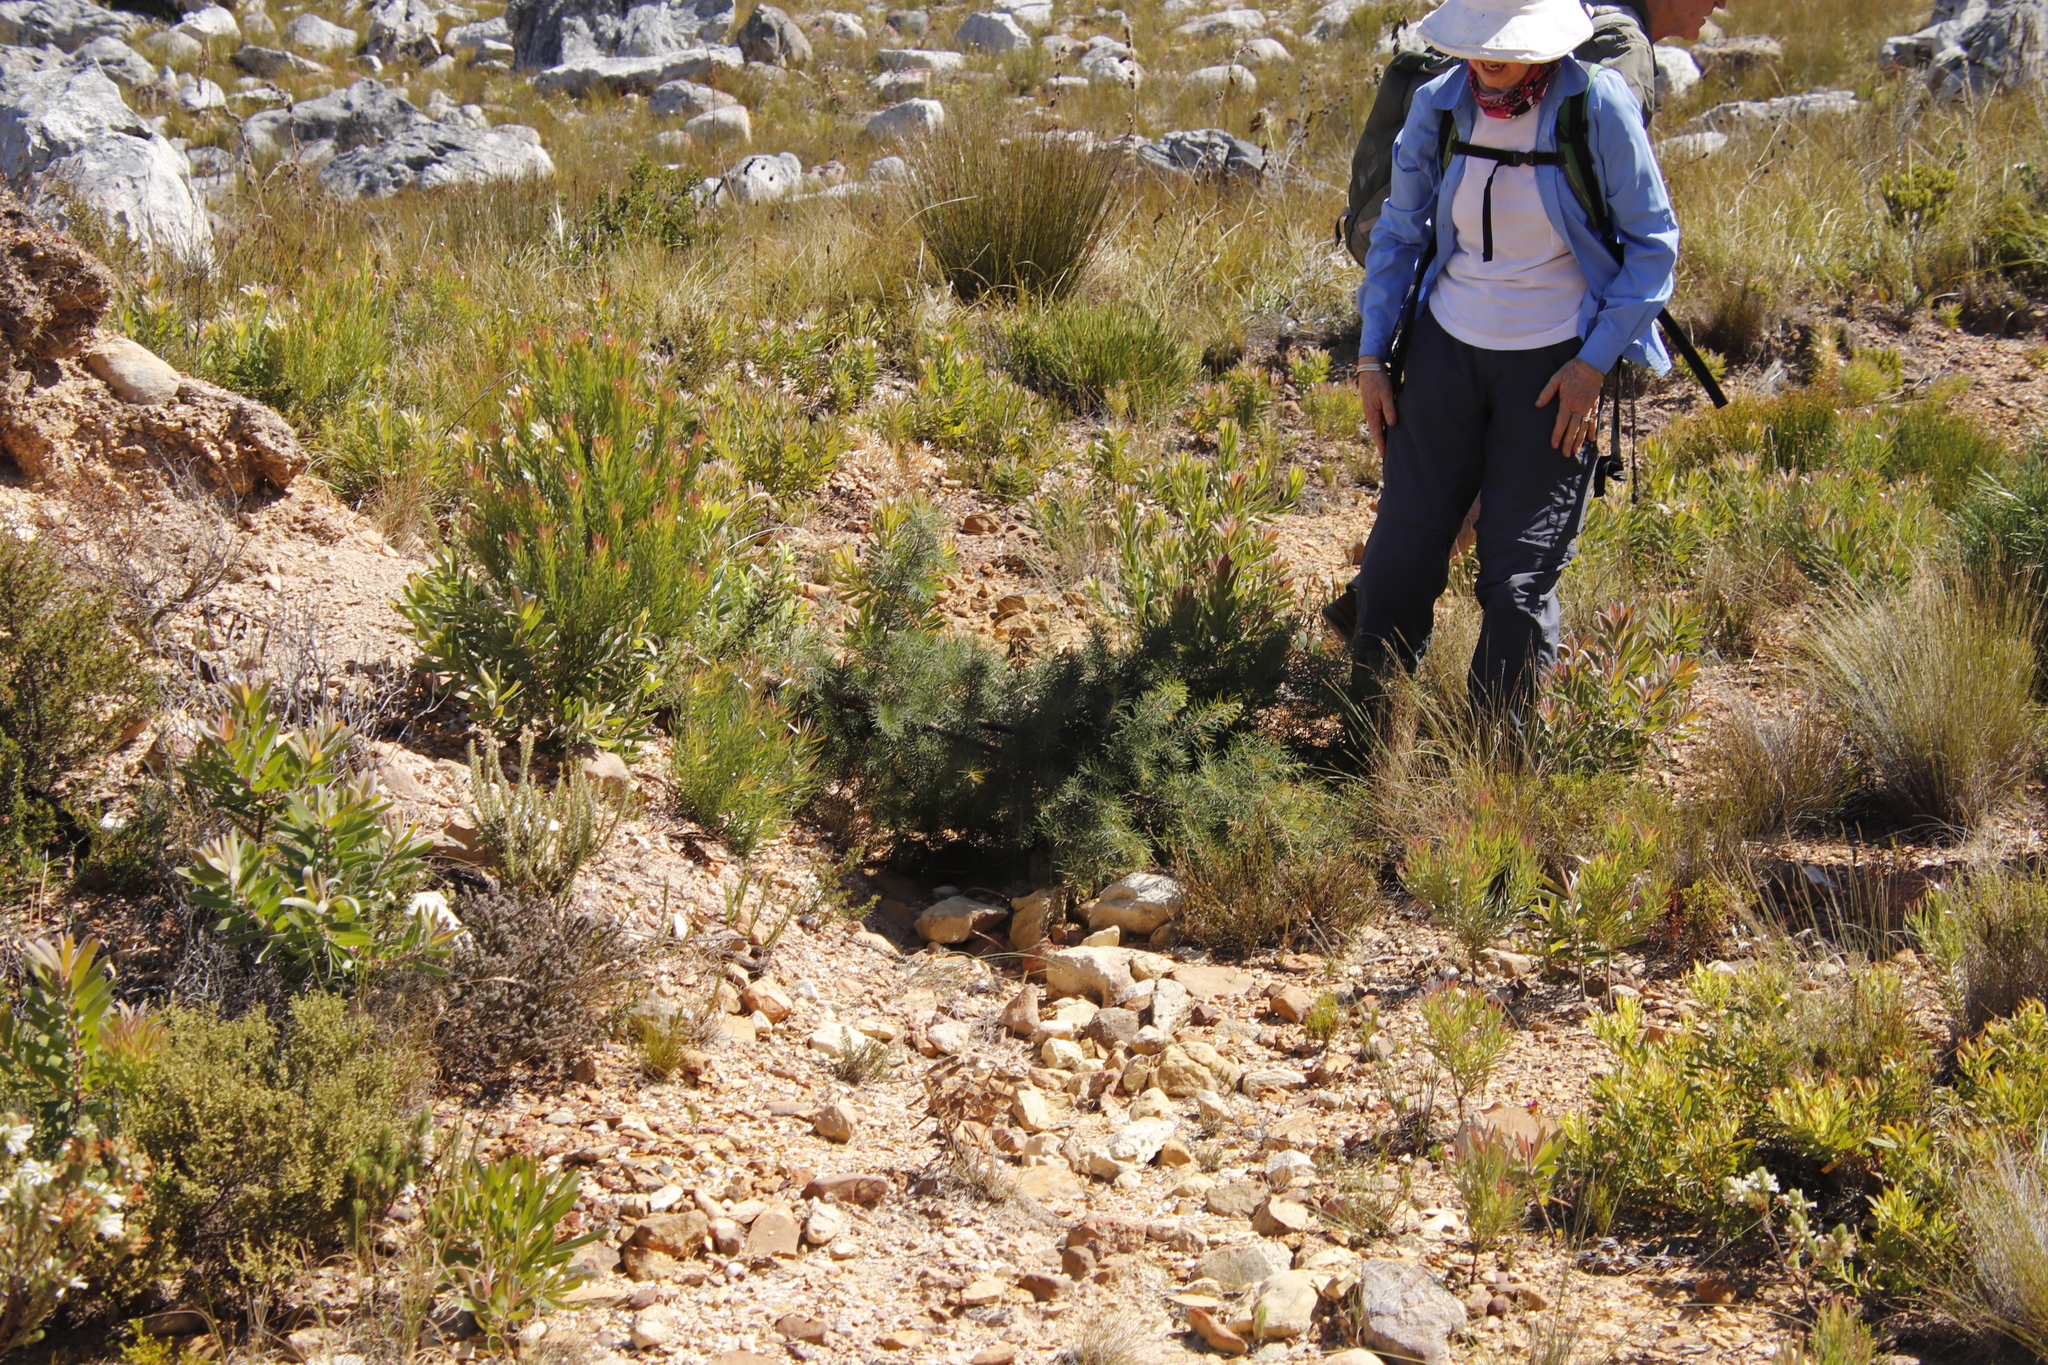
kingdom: Plantae
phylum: Tracheophyta
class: Magnoliopsida
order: Proteales
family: Proteaceae
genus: Hakea
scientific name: Hakea sericea
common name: Needle bush
